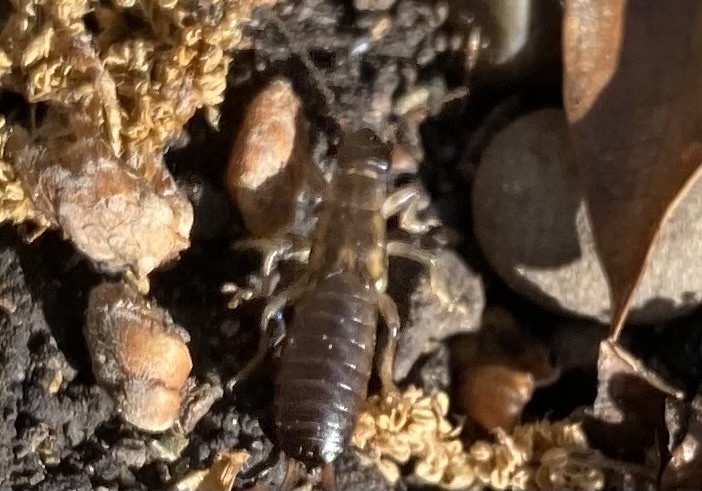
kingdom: Animalia
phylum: Arthropoda
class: Insecta
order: Dermaptera
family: Forficulidae
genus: Forficula
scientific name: Forficula
